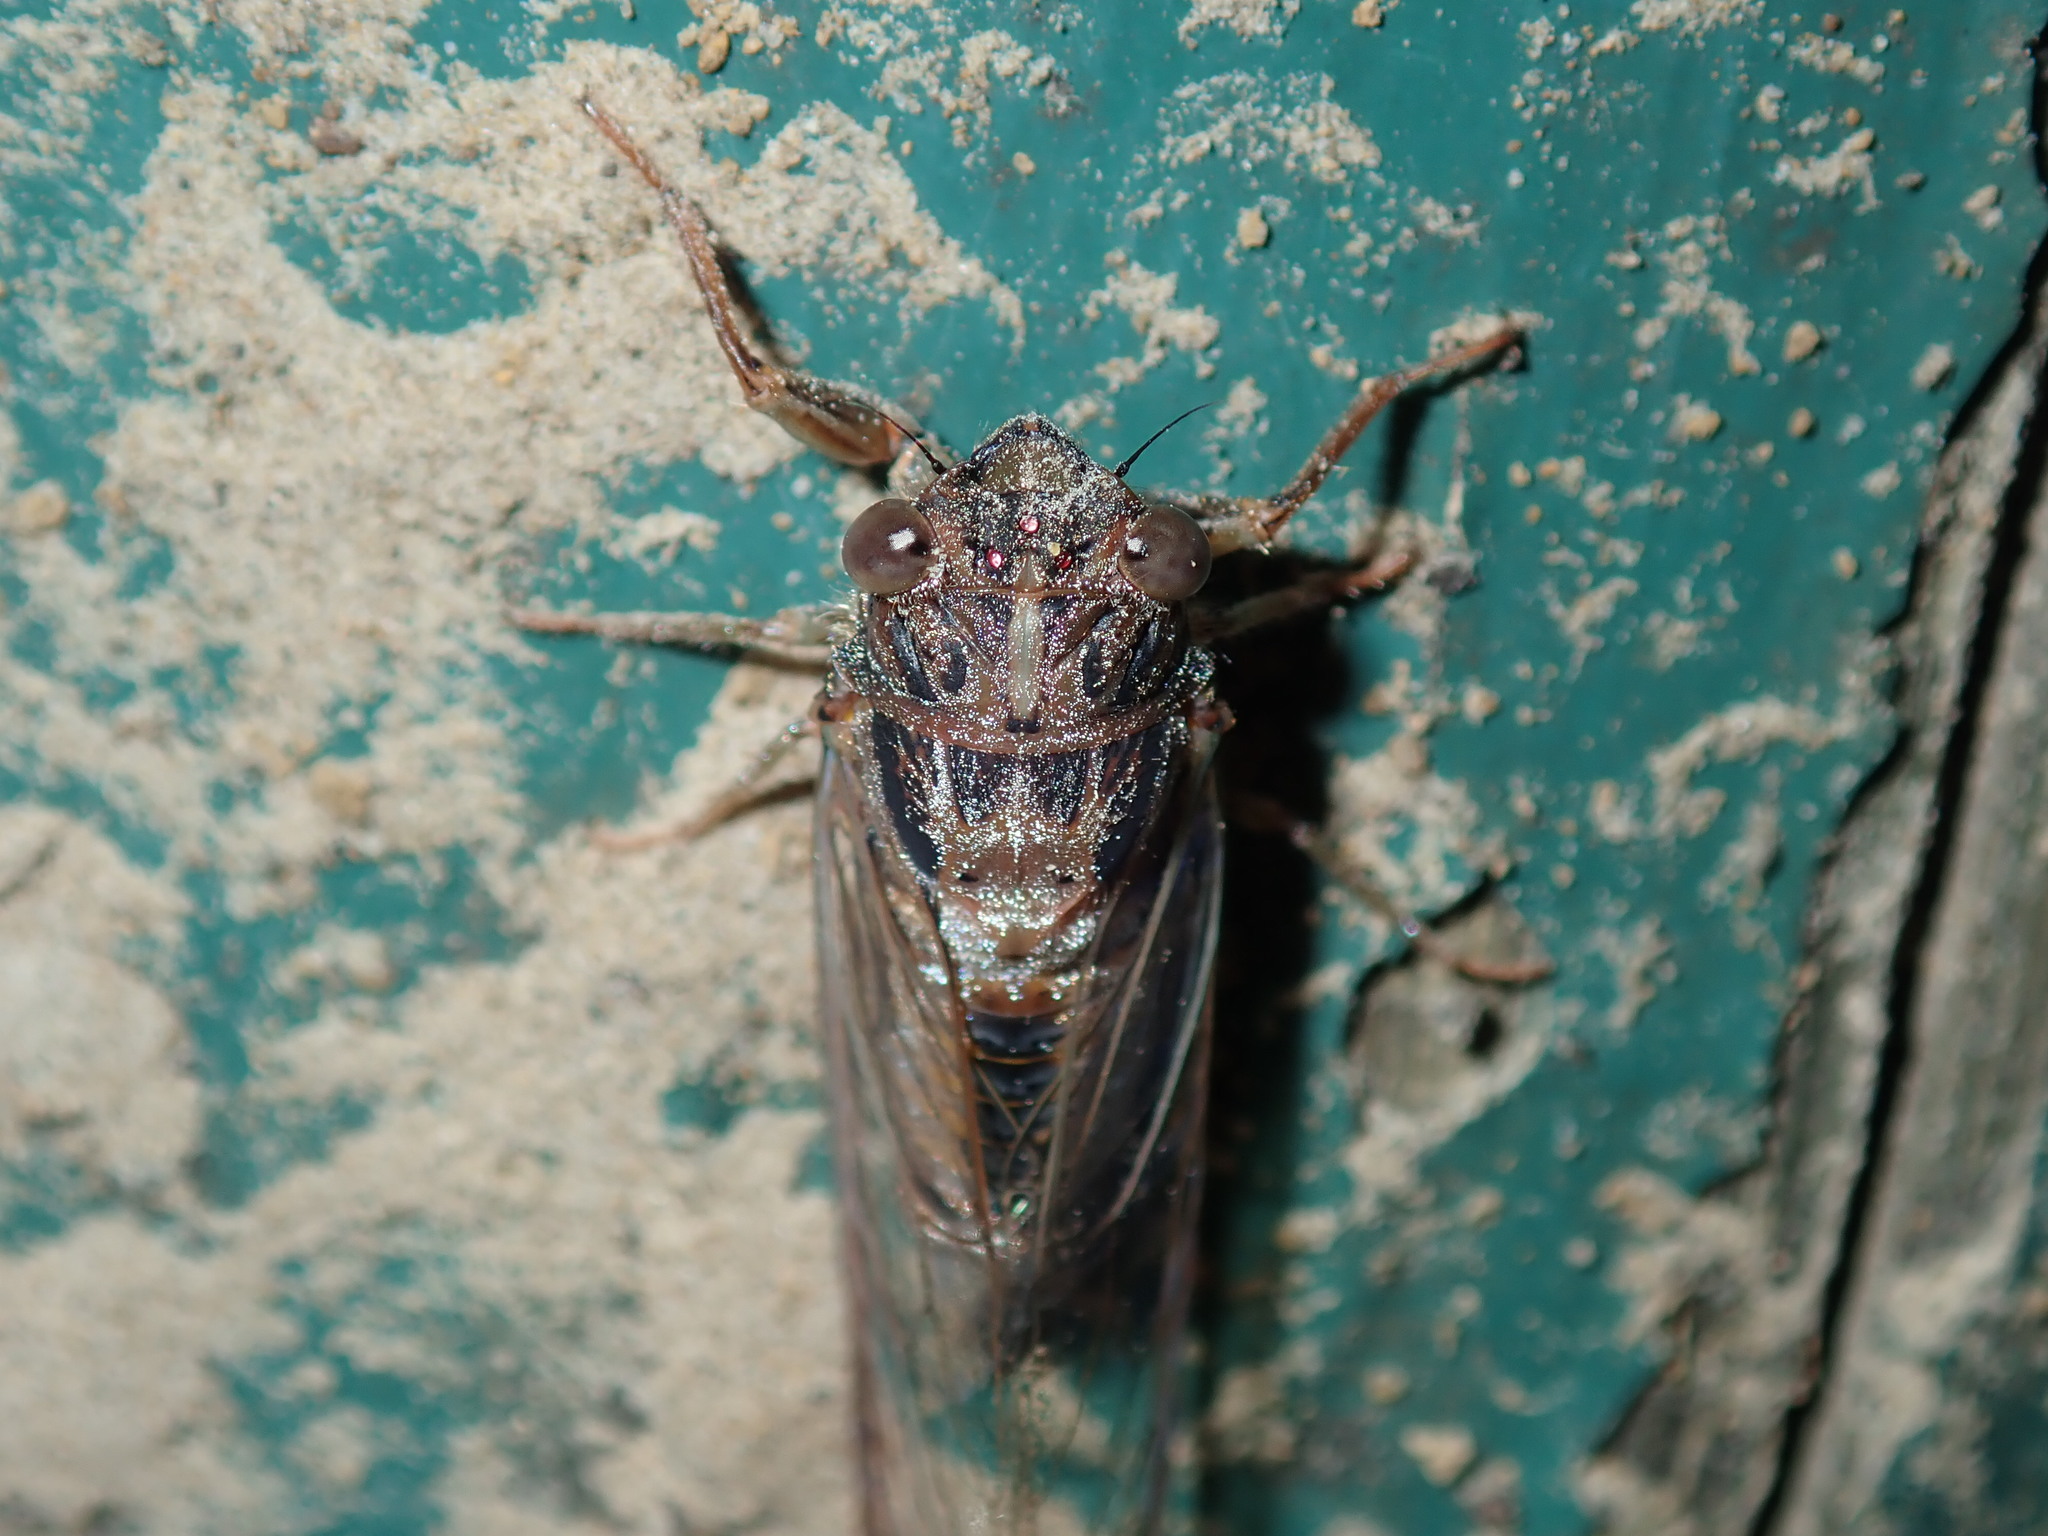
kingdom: Animalia
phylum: Arthropoda
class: Insecta
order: Hemiptera
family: Cicadidae
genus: Yoyetta
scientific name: Yoyetta humphreyae
